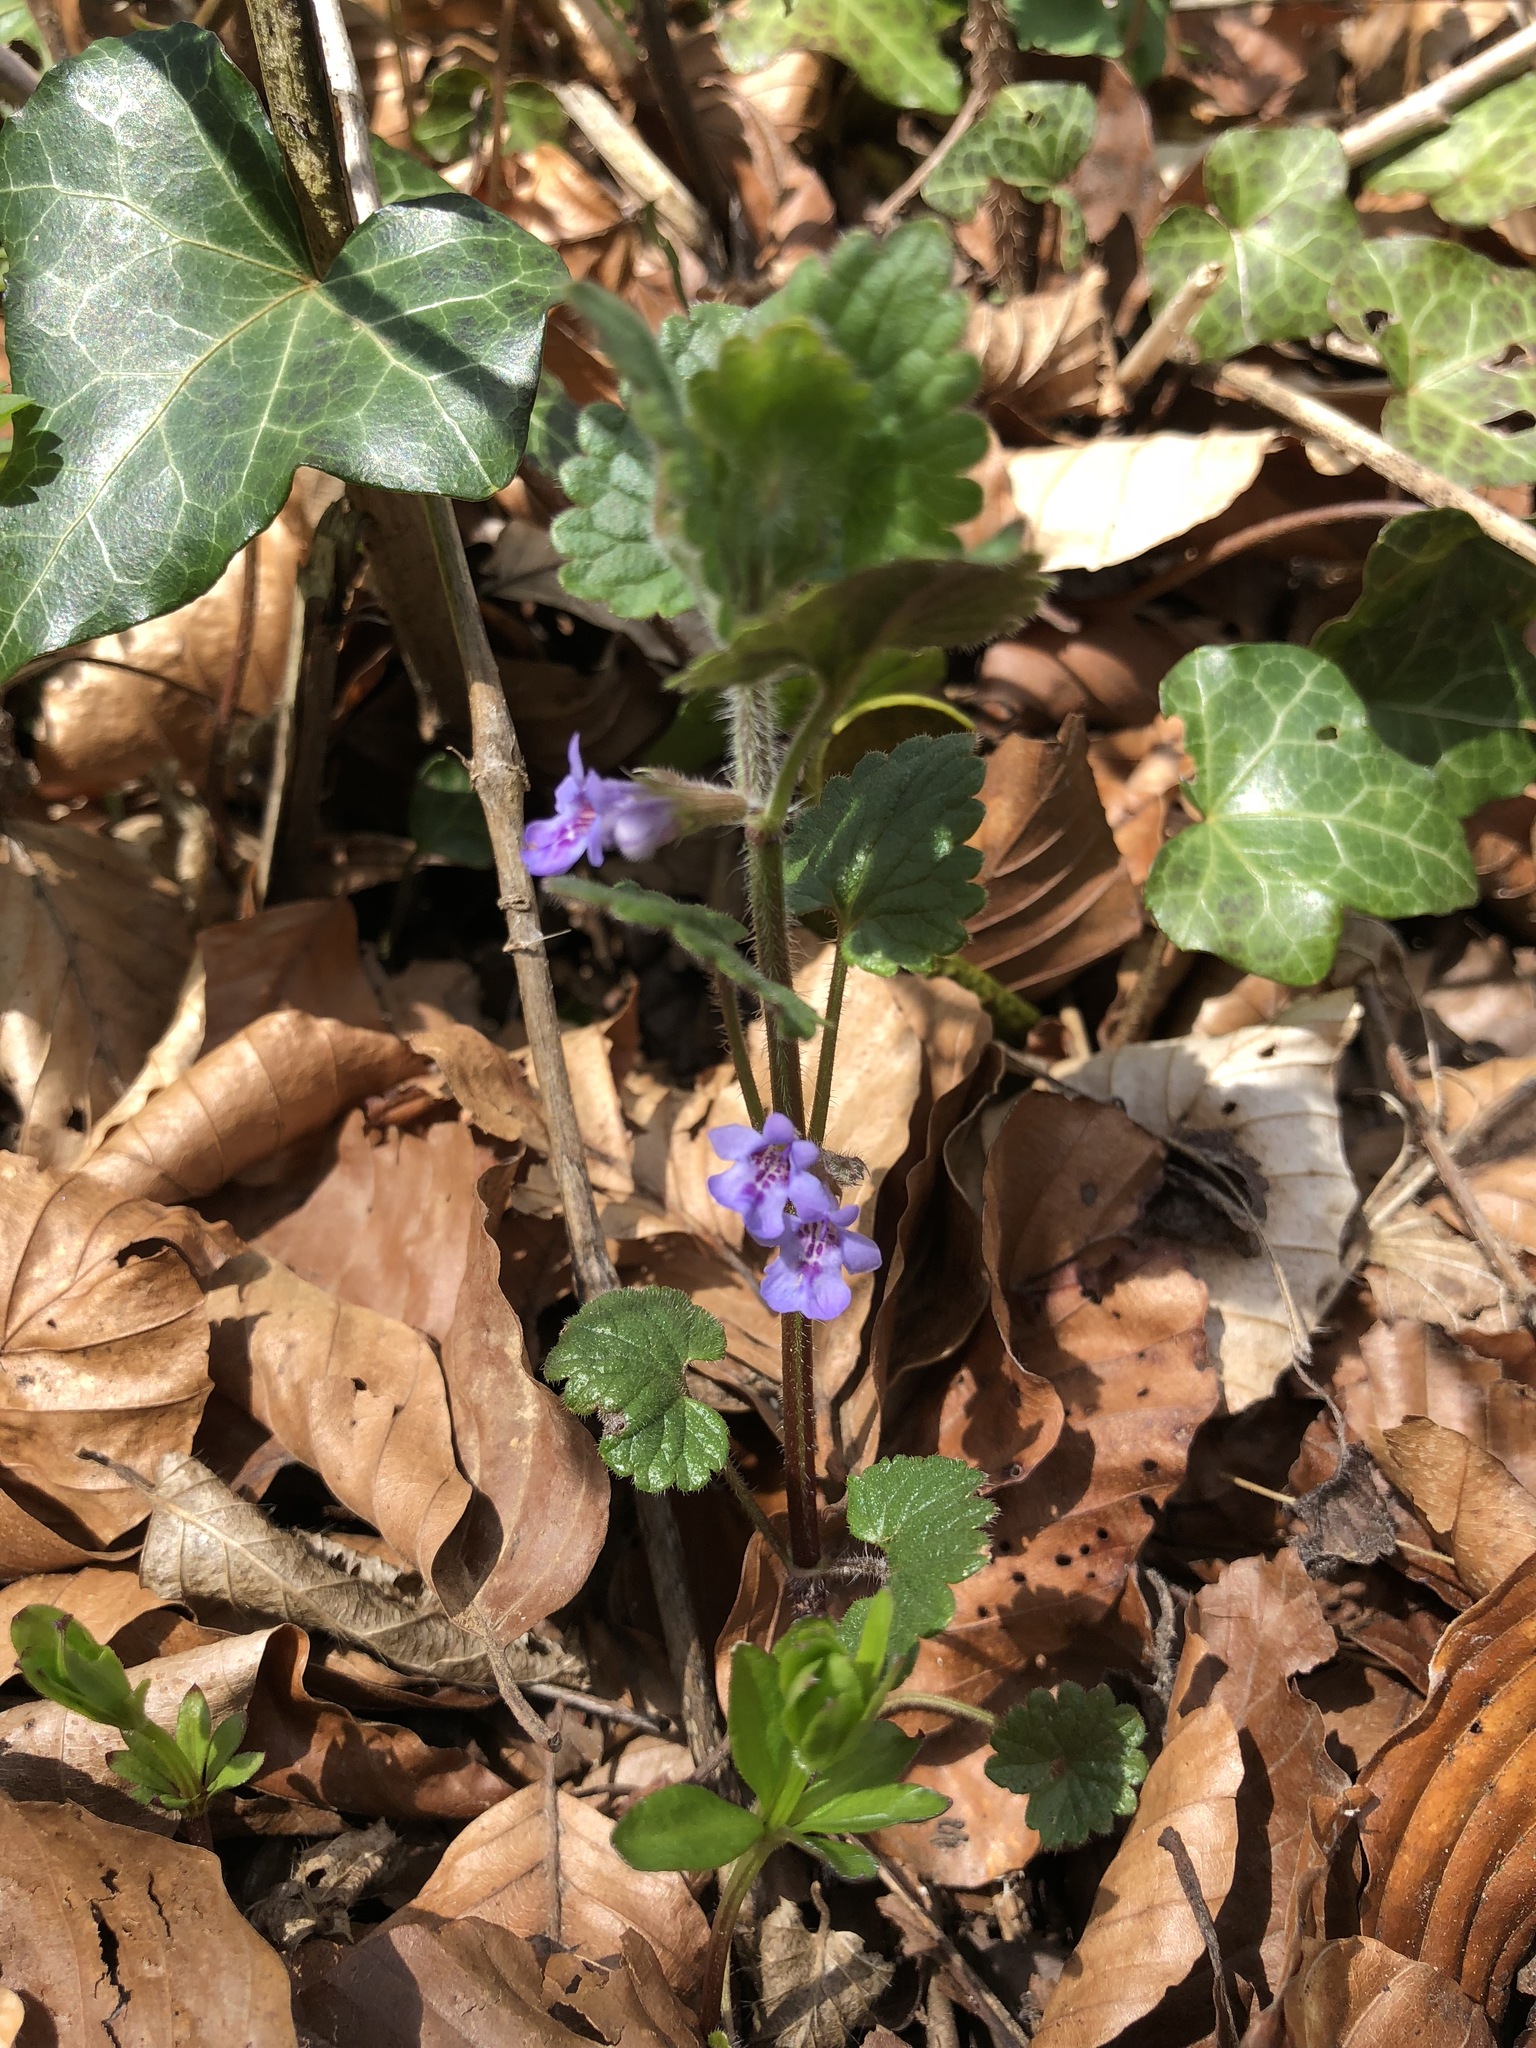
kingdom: Plantae
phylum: Tracheophyta
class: Magnoliopsida
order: Lamiales
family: Lamiaceae
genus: Glechoma
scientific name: Glechoma hederacea
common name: Ground ivy
